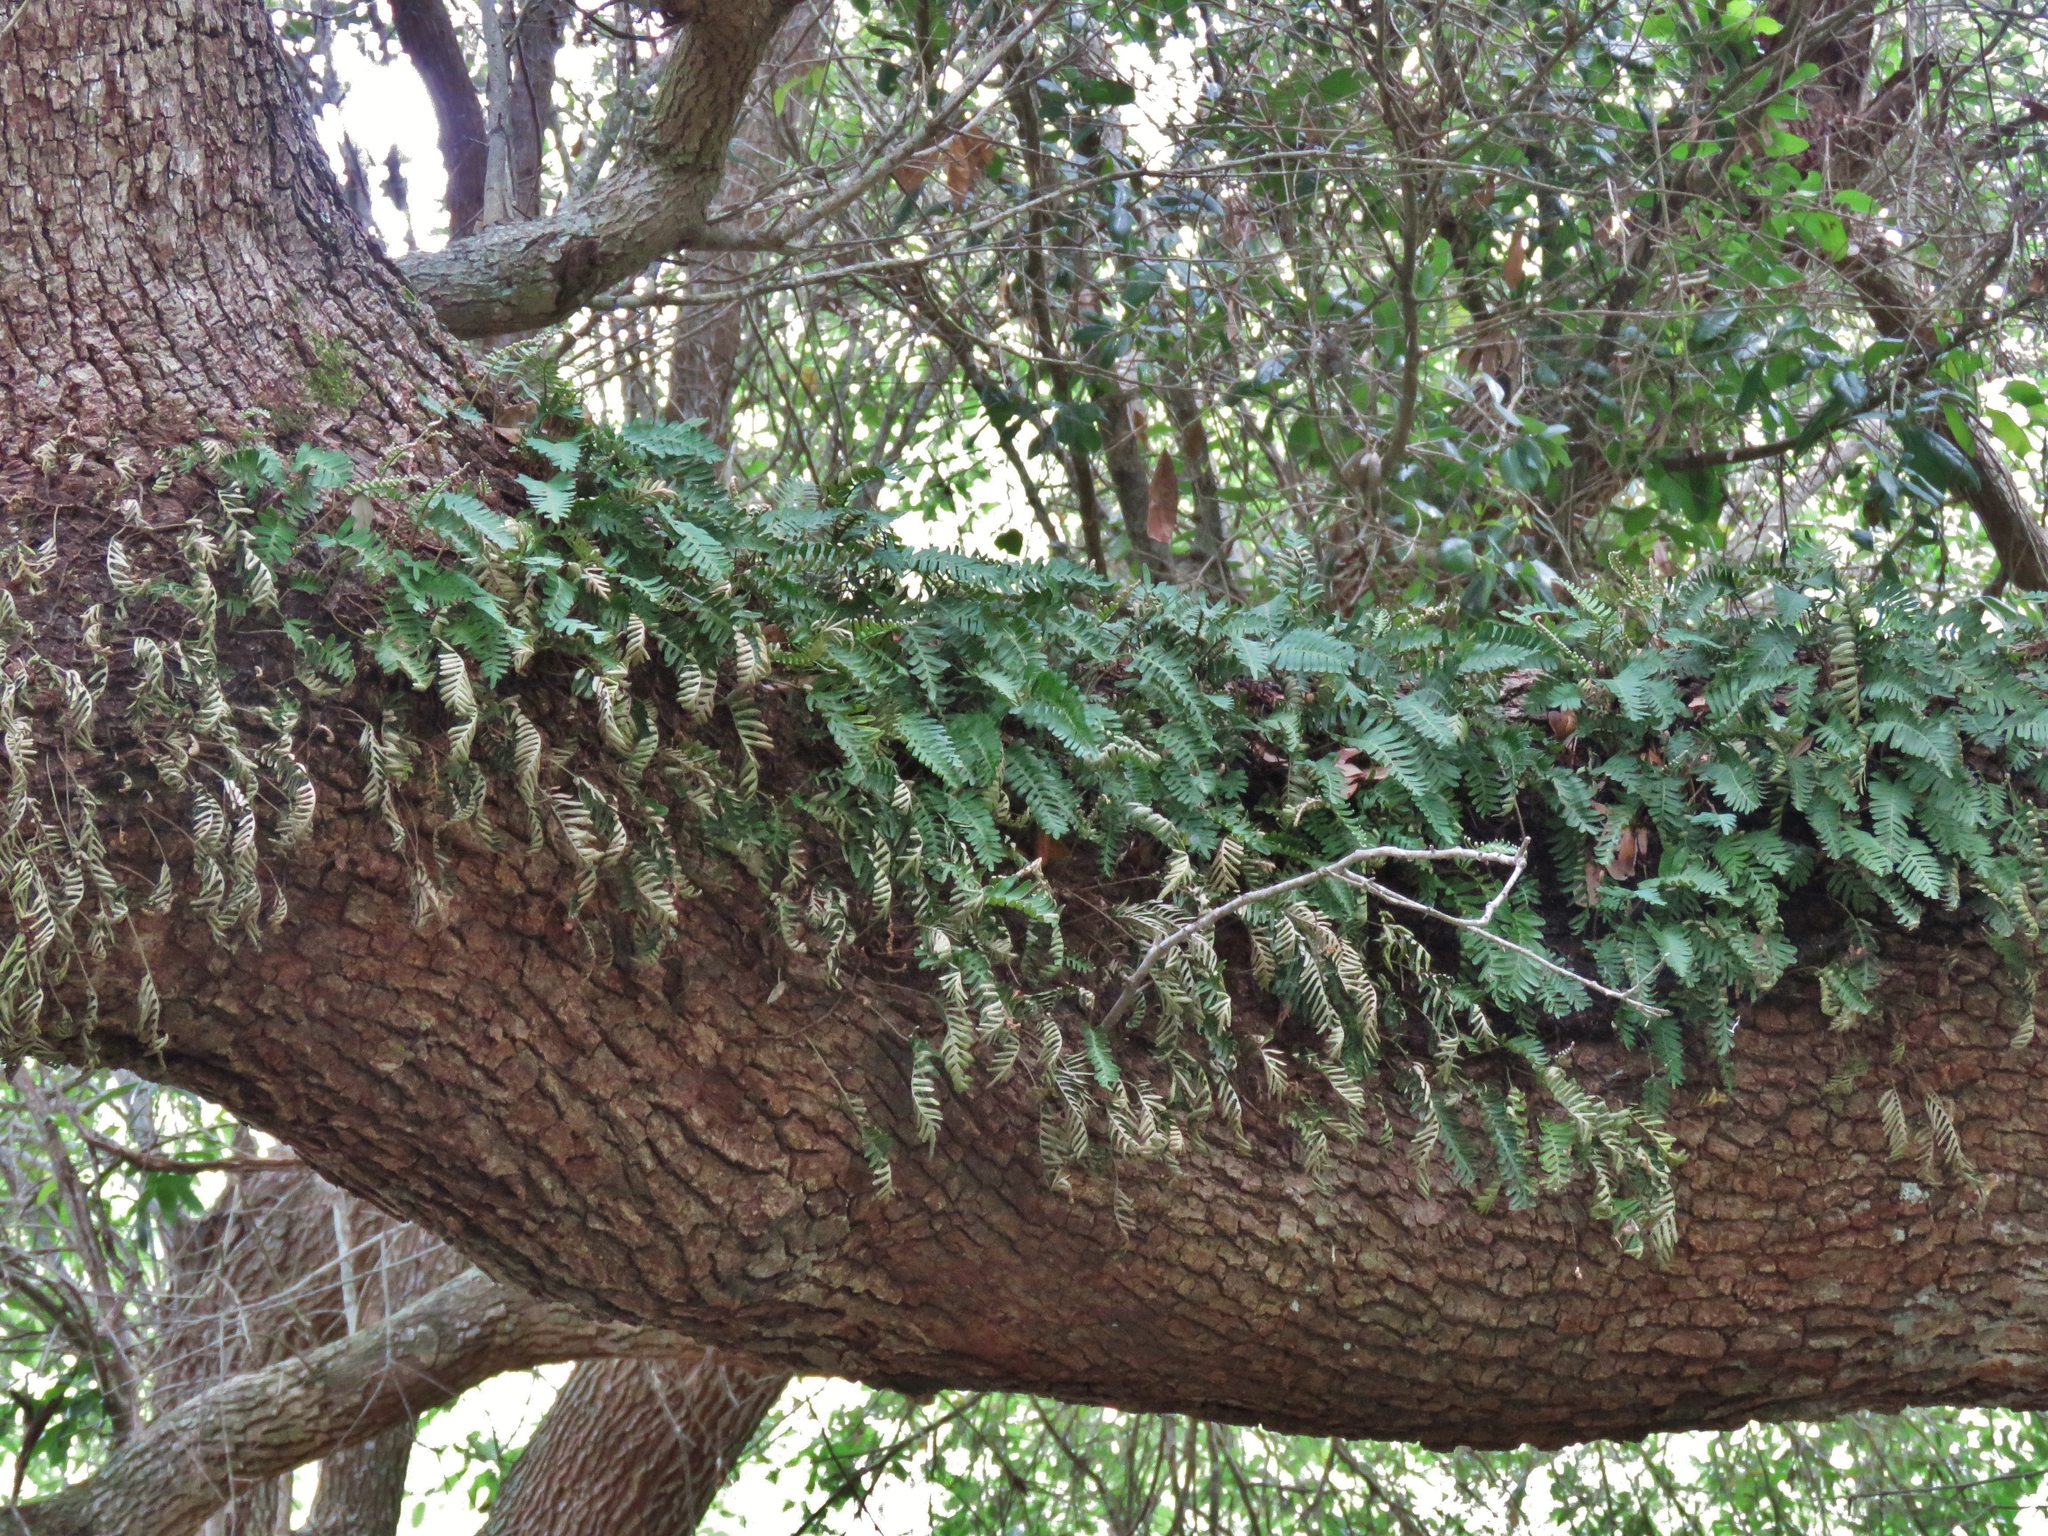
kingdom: Plantae
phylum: Tracheophyta
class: Polypodiopsida
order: Polypodiales
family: Polypodiaceae
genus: Pleopeltis
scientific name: Pleopeltis michauxiana
